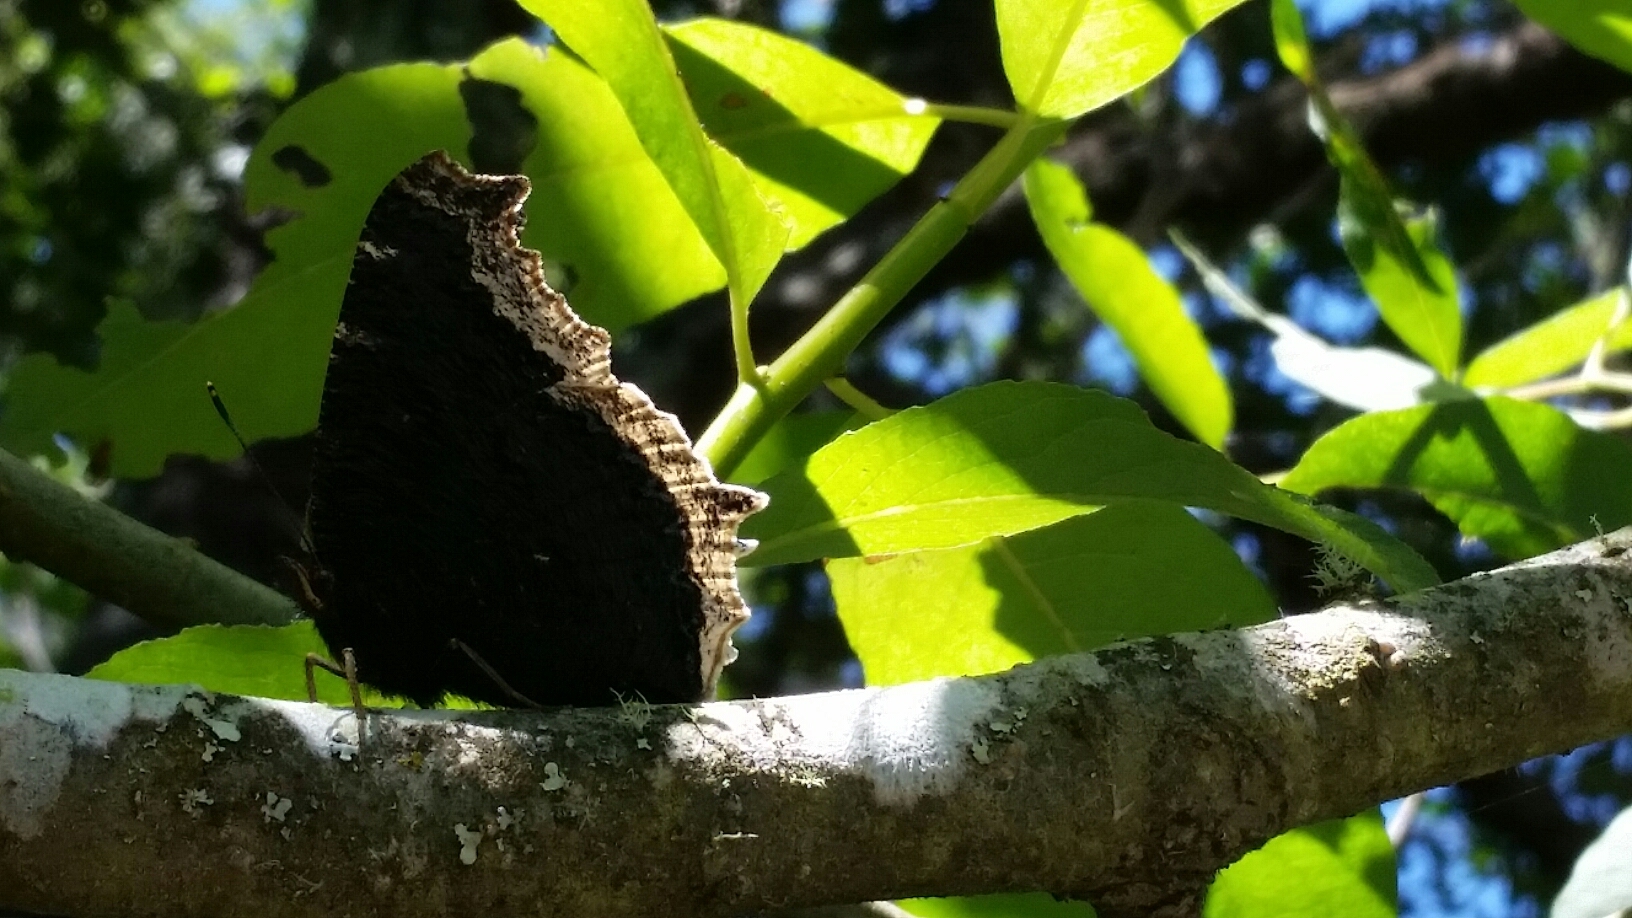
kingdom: Animalia
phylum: Arthropoda
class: Insecta
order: Lepidoptera
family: Nymphalidae
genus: Nymphalis
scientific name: Nymphalis antiopa
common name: Camberwell beauty
